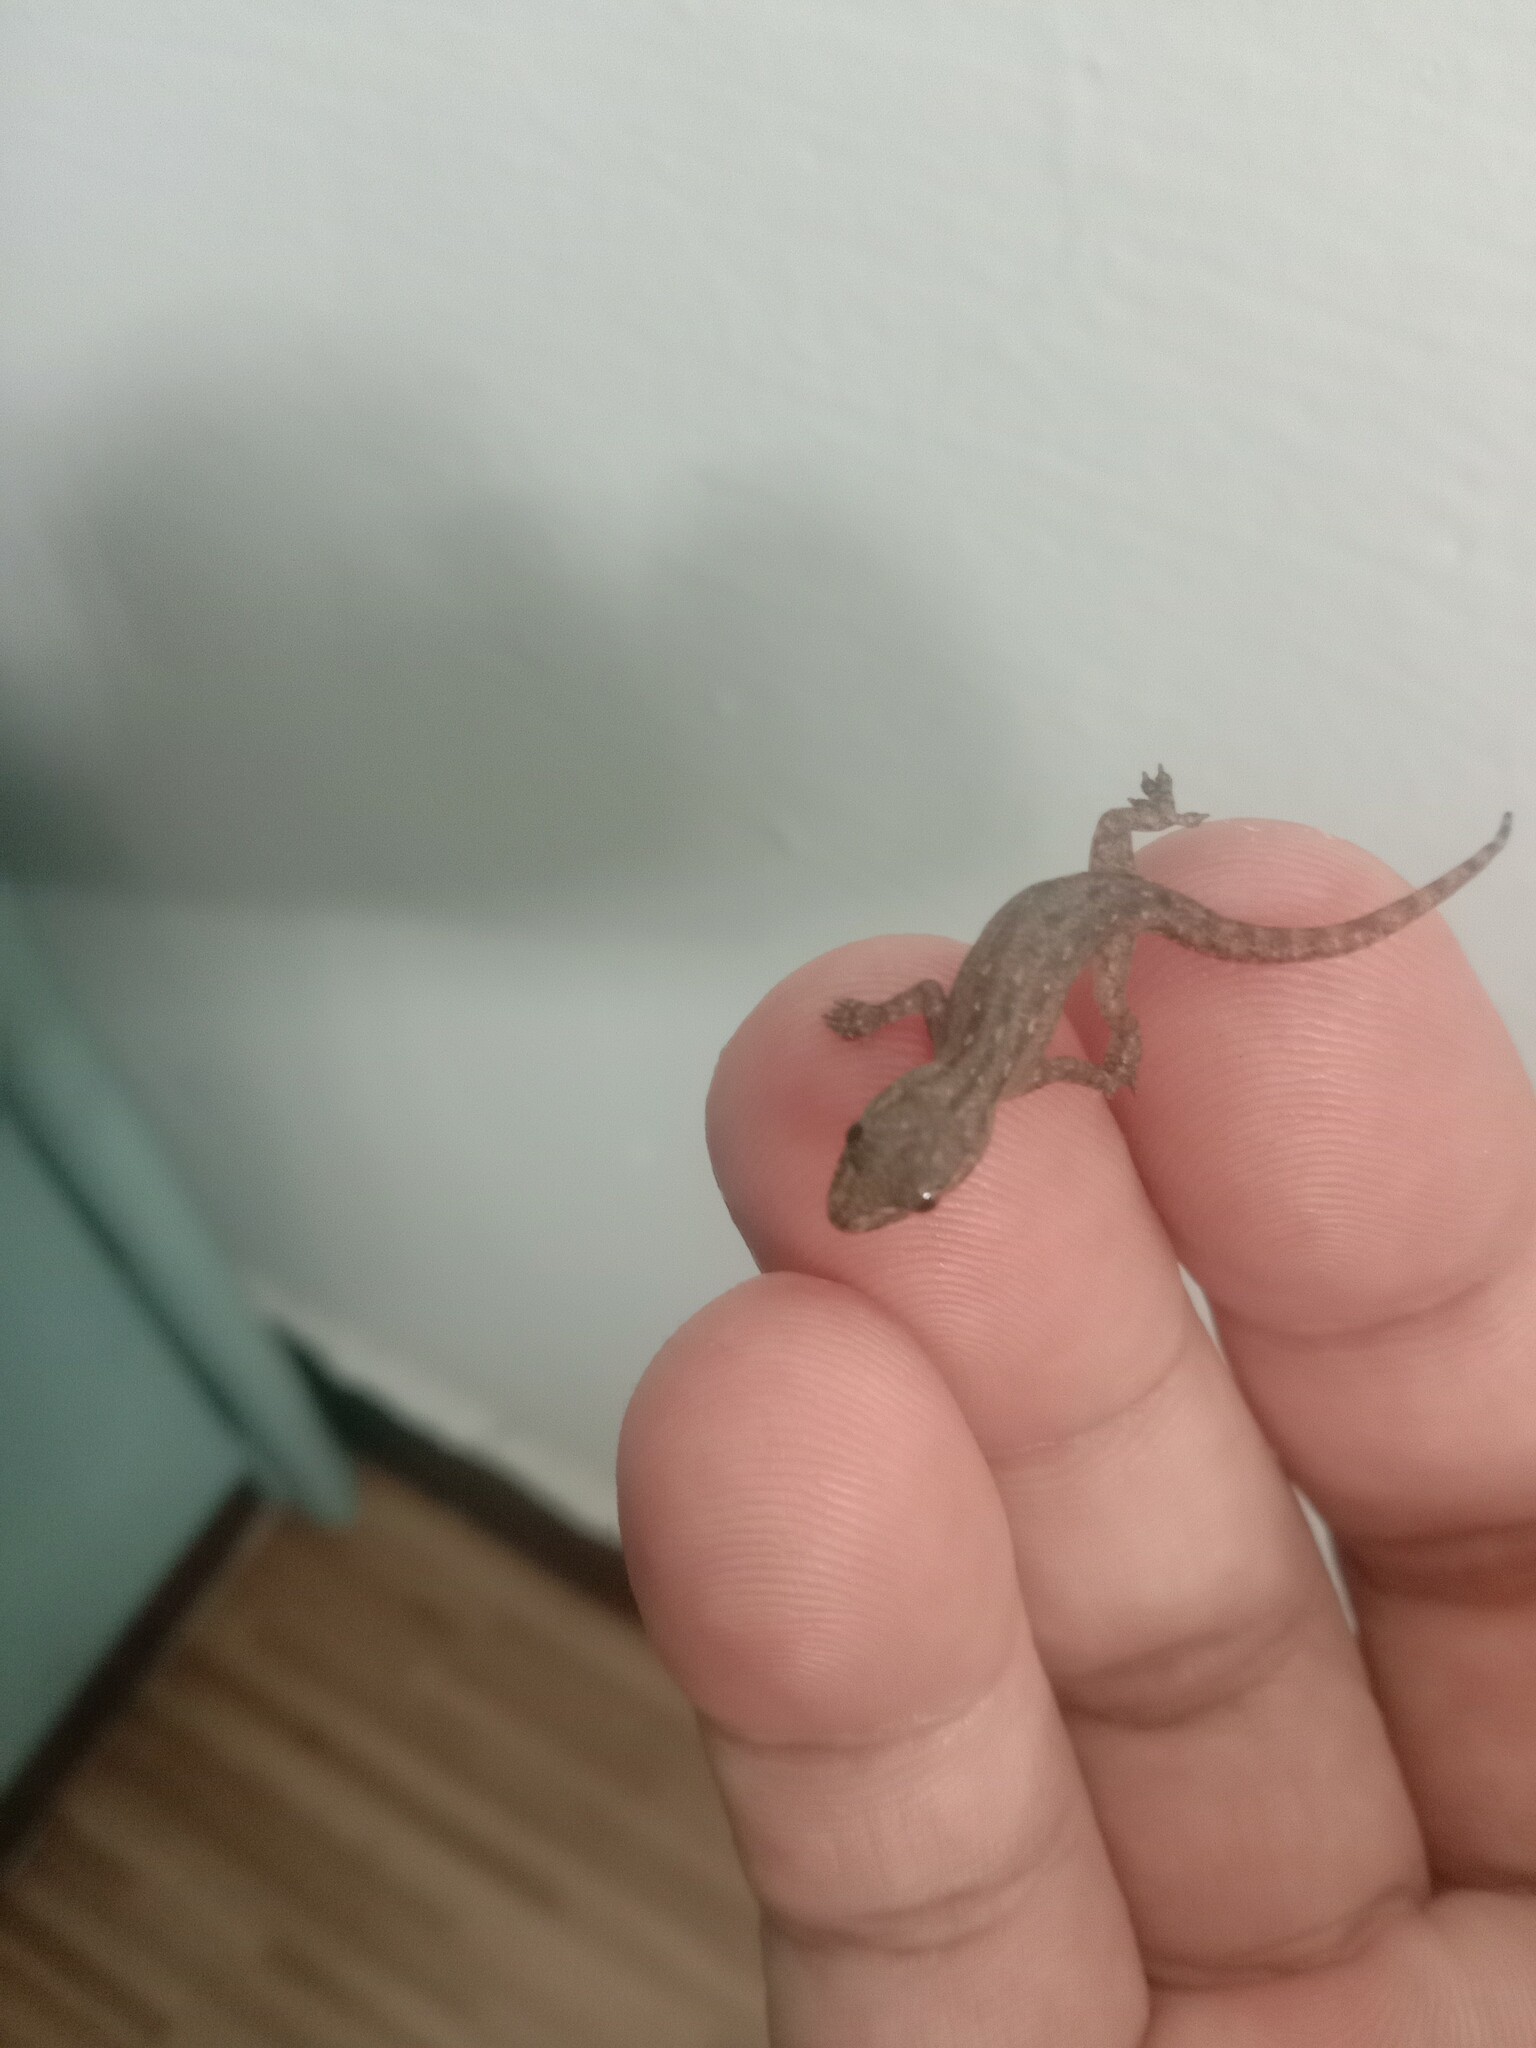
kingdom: Animalia
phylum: Chordata
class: Squamata
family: Gekkonidae
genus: Hemidactylus
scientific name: Hemidactylus frenatus
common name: Common house gecko
